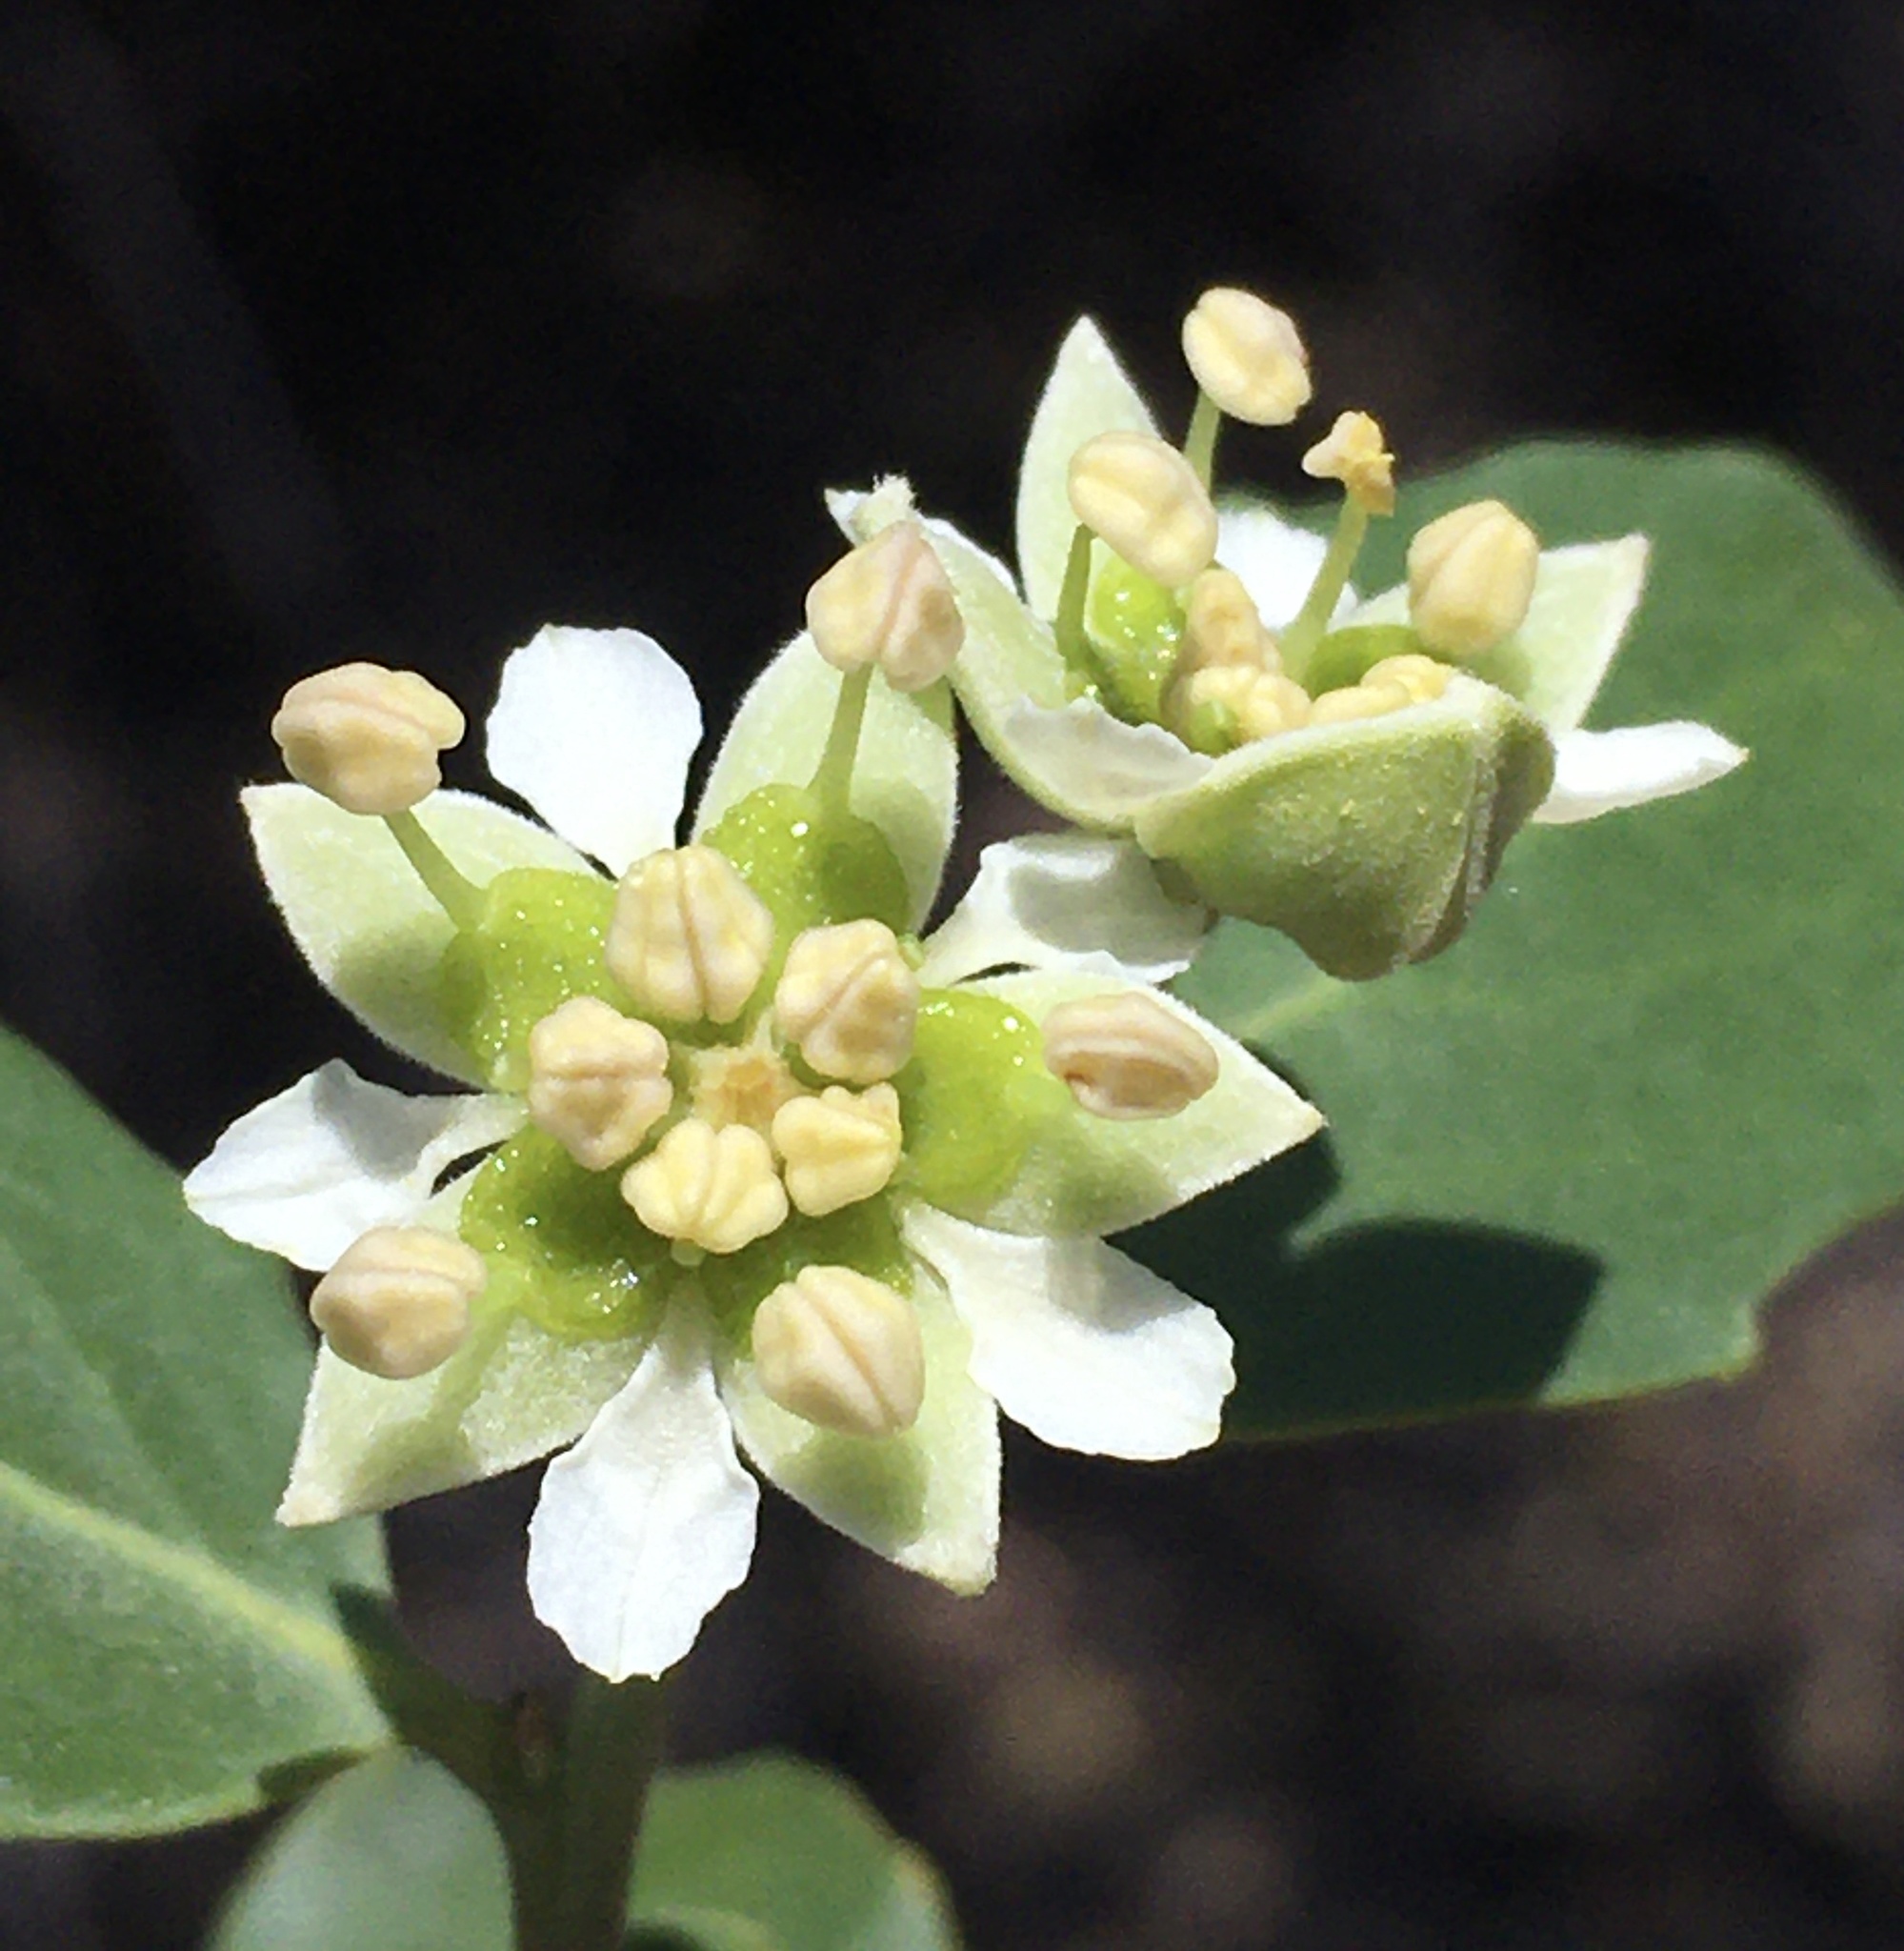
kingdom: Plantae
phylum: Tracheophyta
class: Magnoliopsida
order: Fabales
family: Quillajaceae
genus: Quillaja
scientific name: Quillaja saponaria
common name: Murillo's-bark
